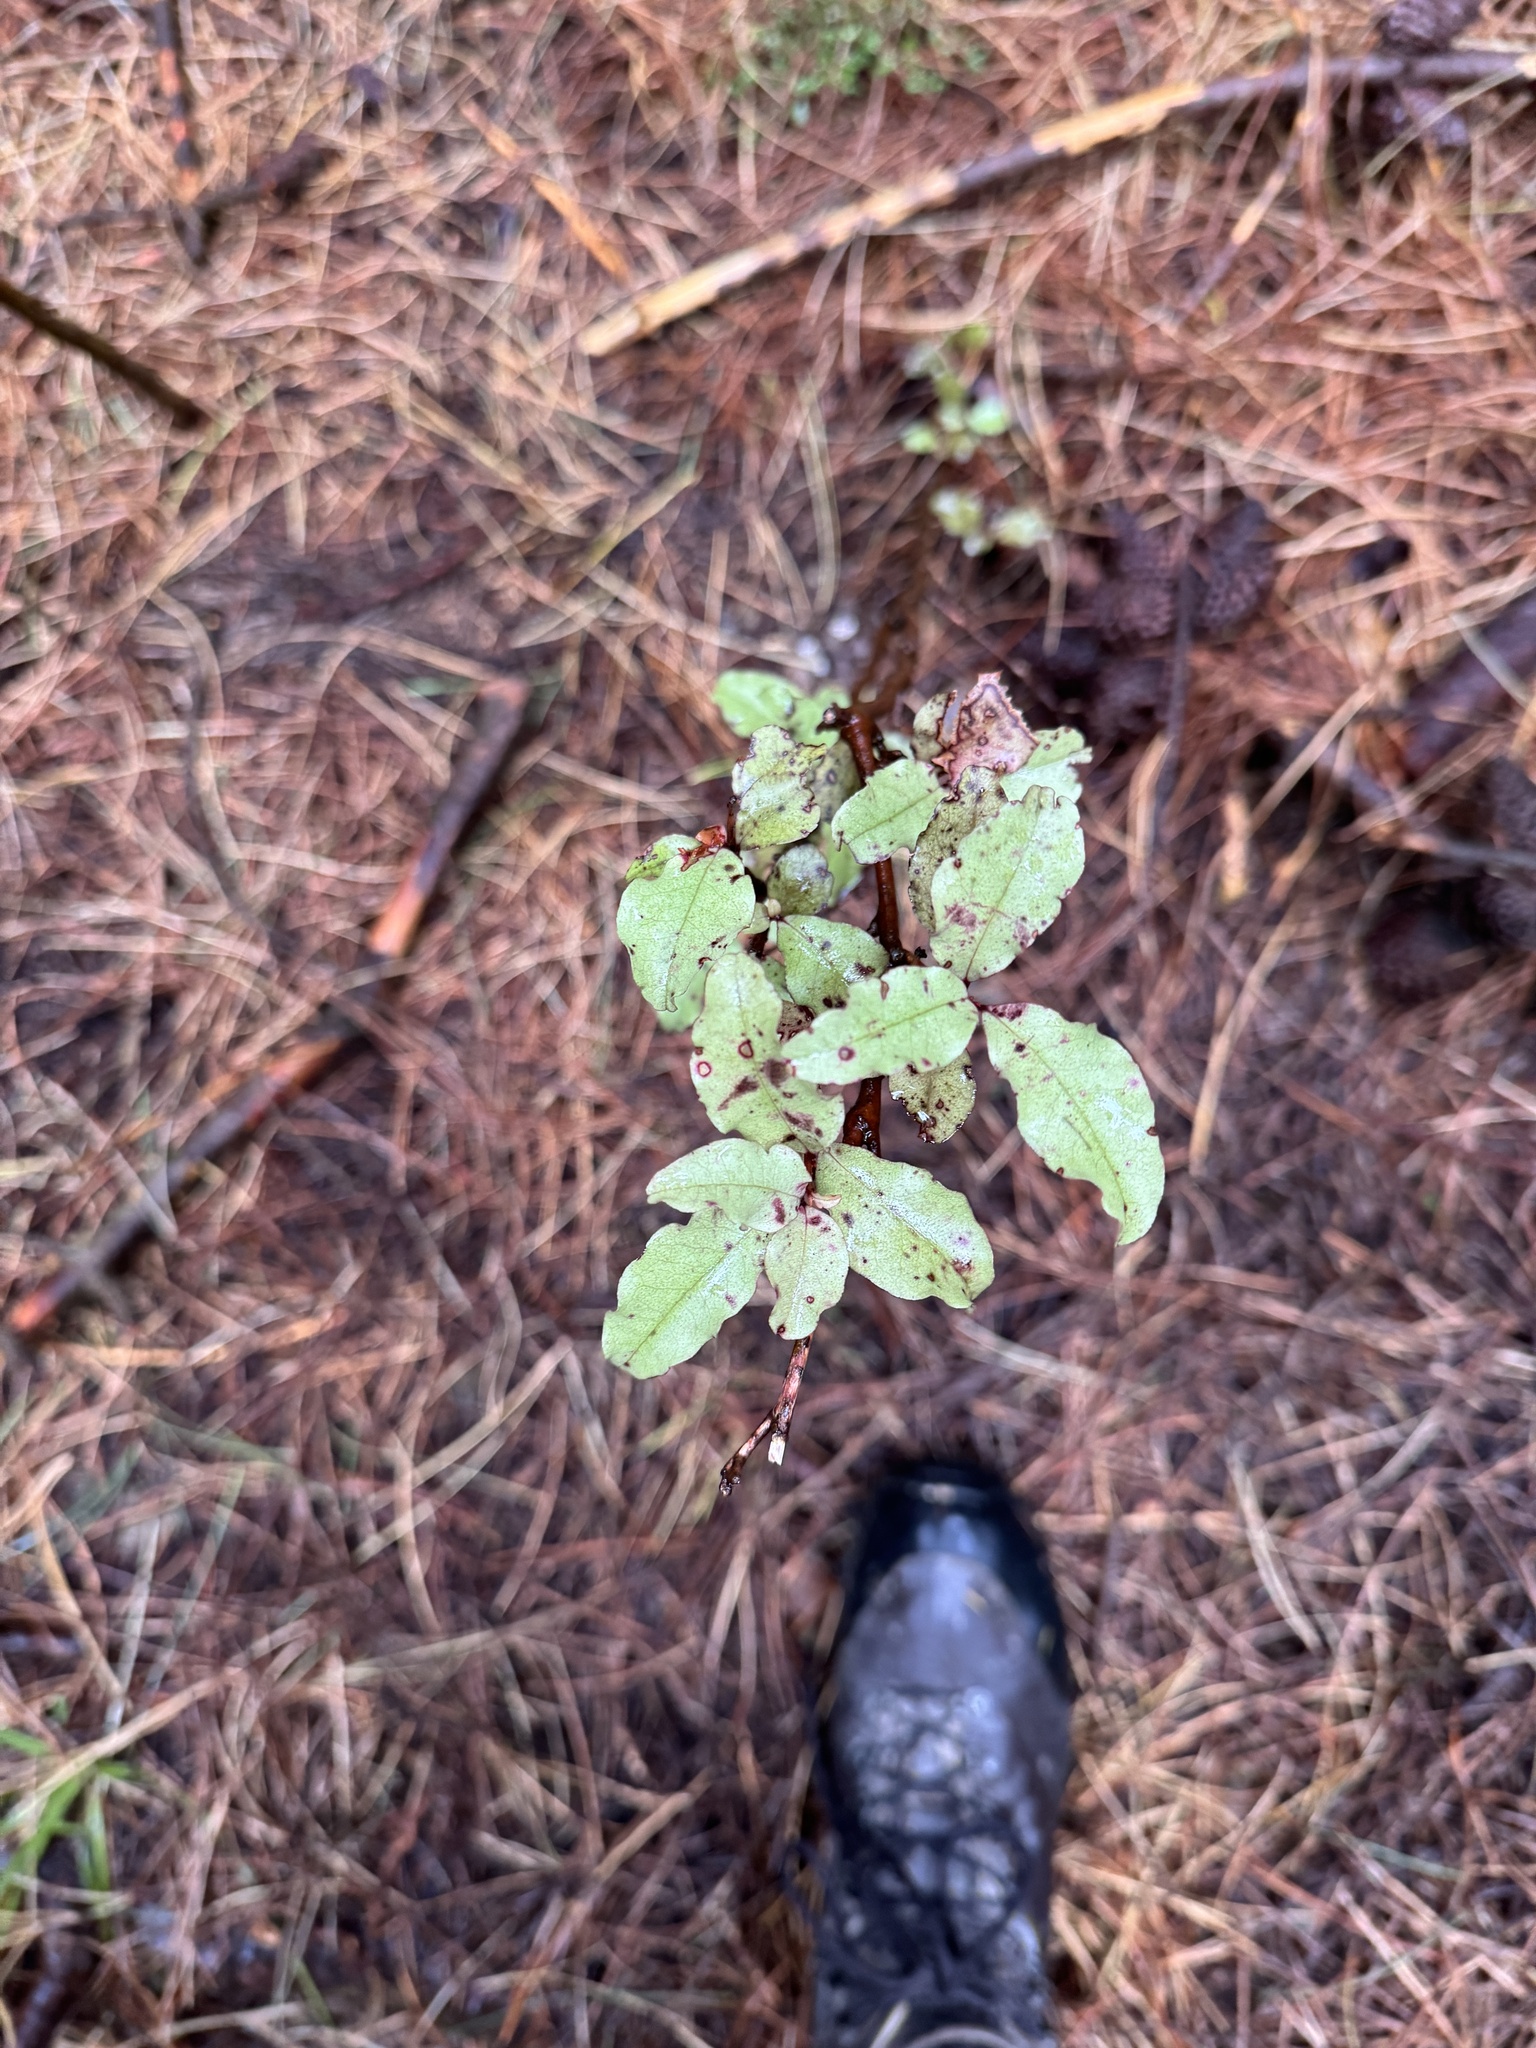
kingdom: Plantae
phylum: Tracheophyta
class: Magnoliopsida
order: Ericales
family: Primulaceae
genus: Myrsine
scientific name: Myrsine australis
